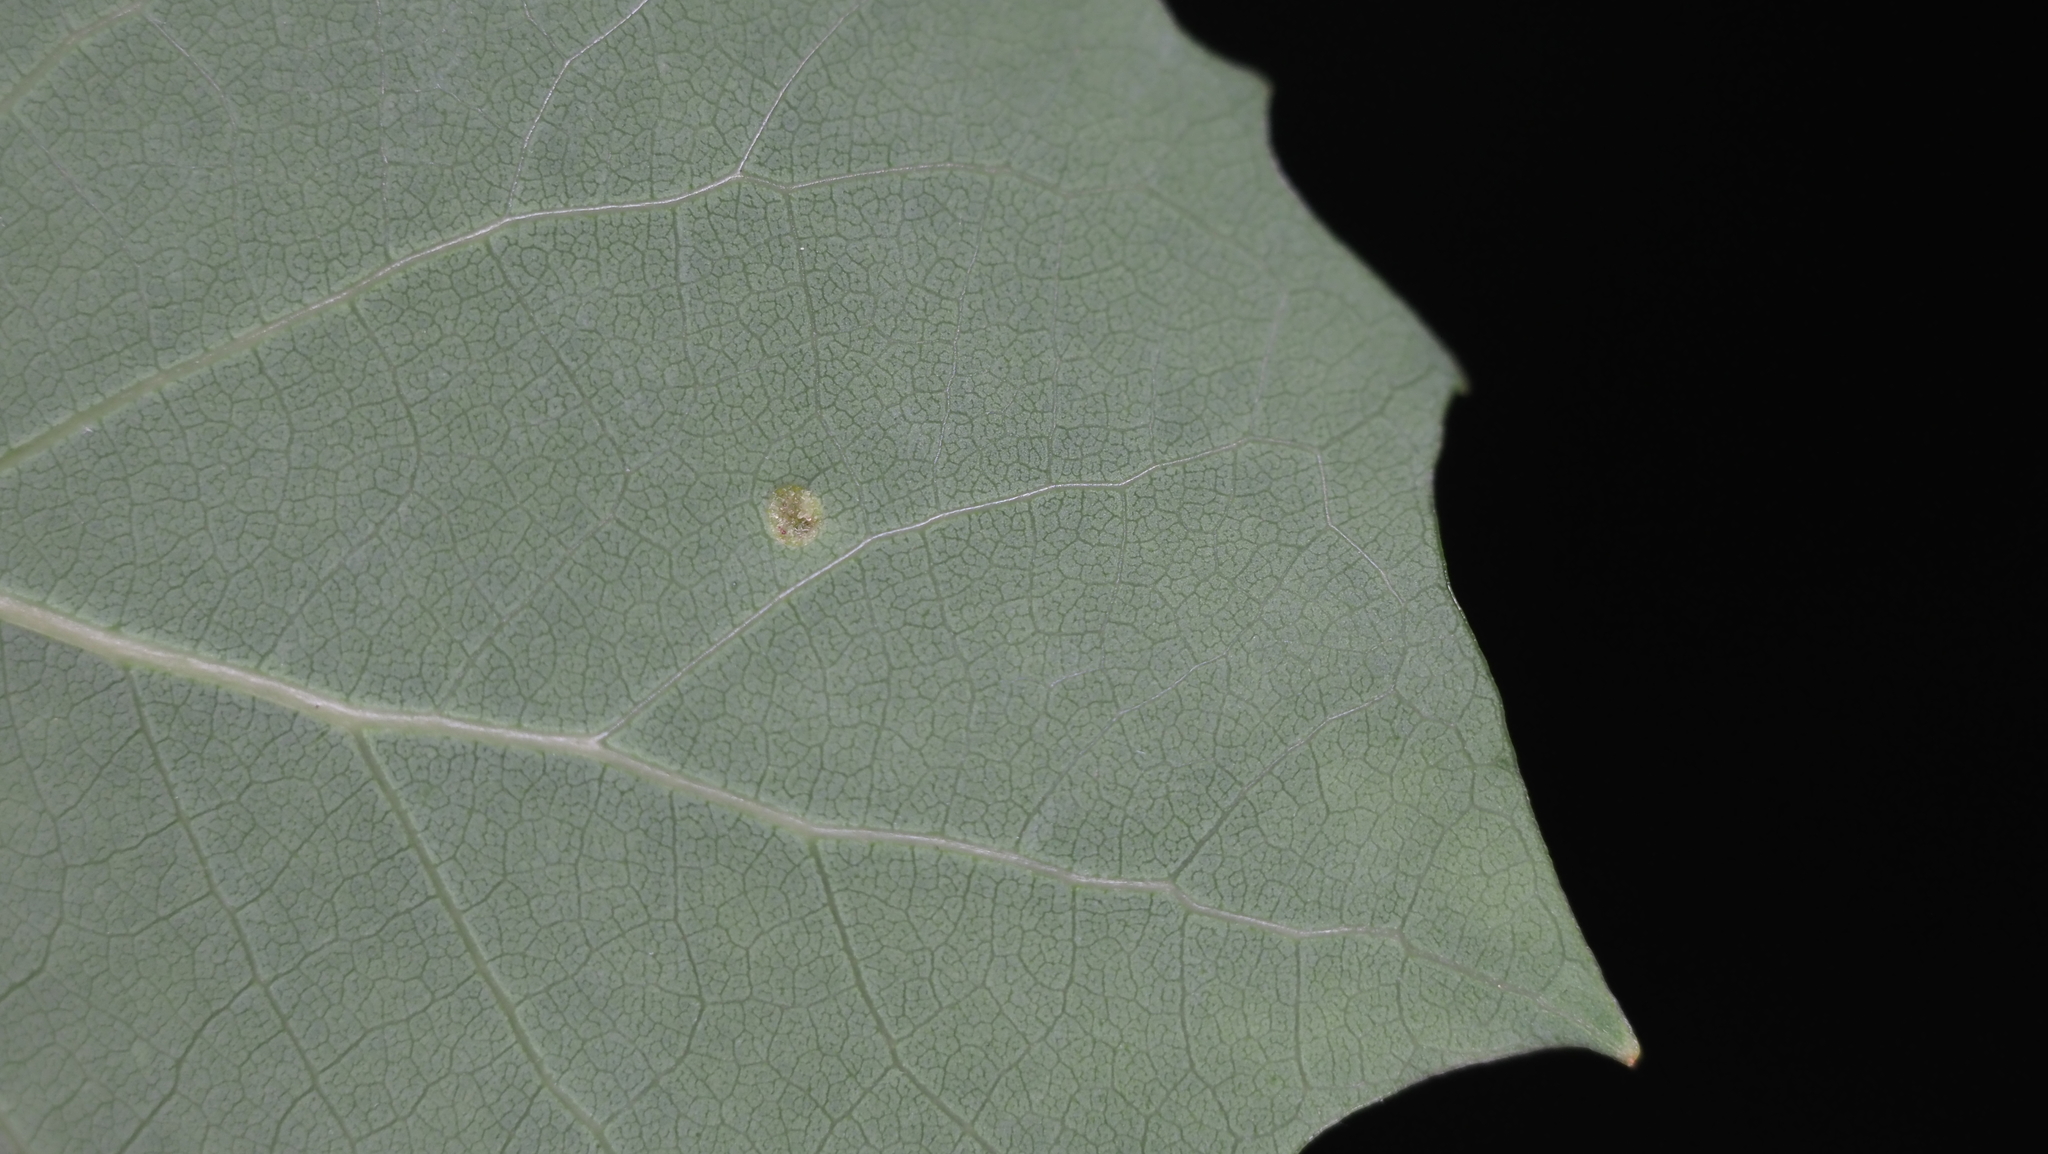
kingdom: Animalia
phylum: Arthropoda
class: Arachnida
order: Trombidiformes
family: Eriophyidae
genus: Phyllocoptes
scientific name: Phyllocoptes
